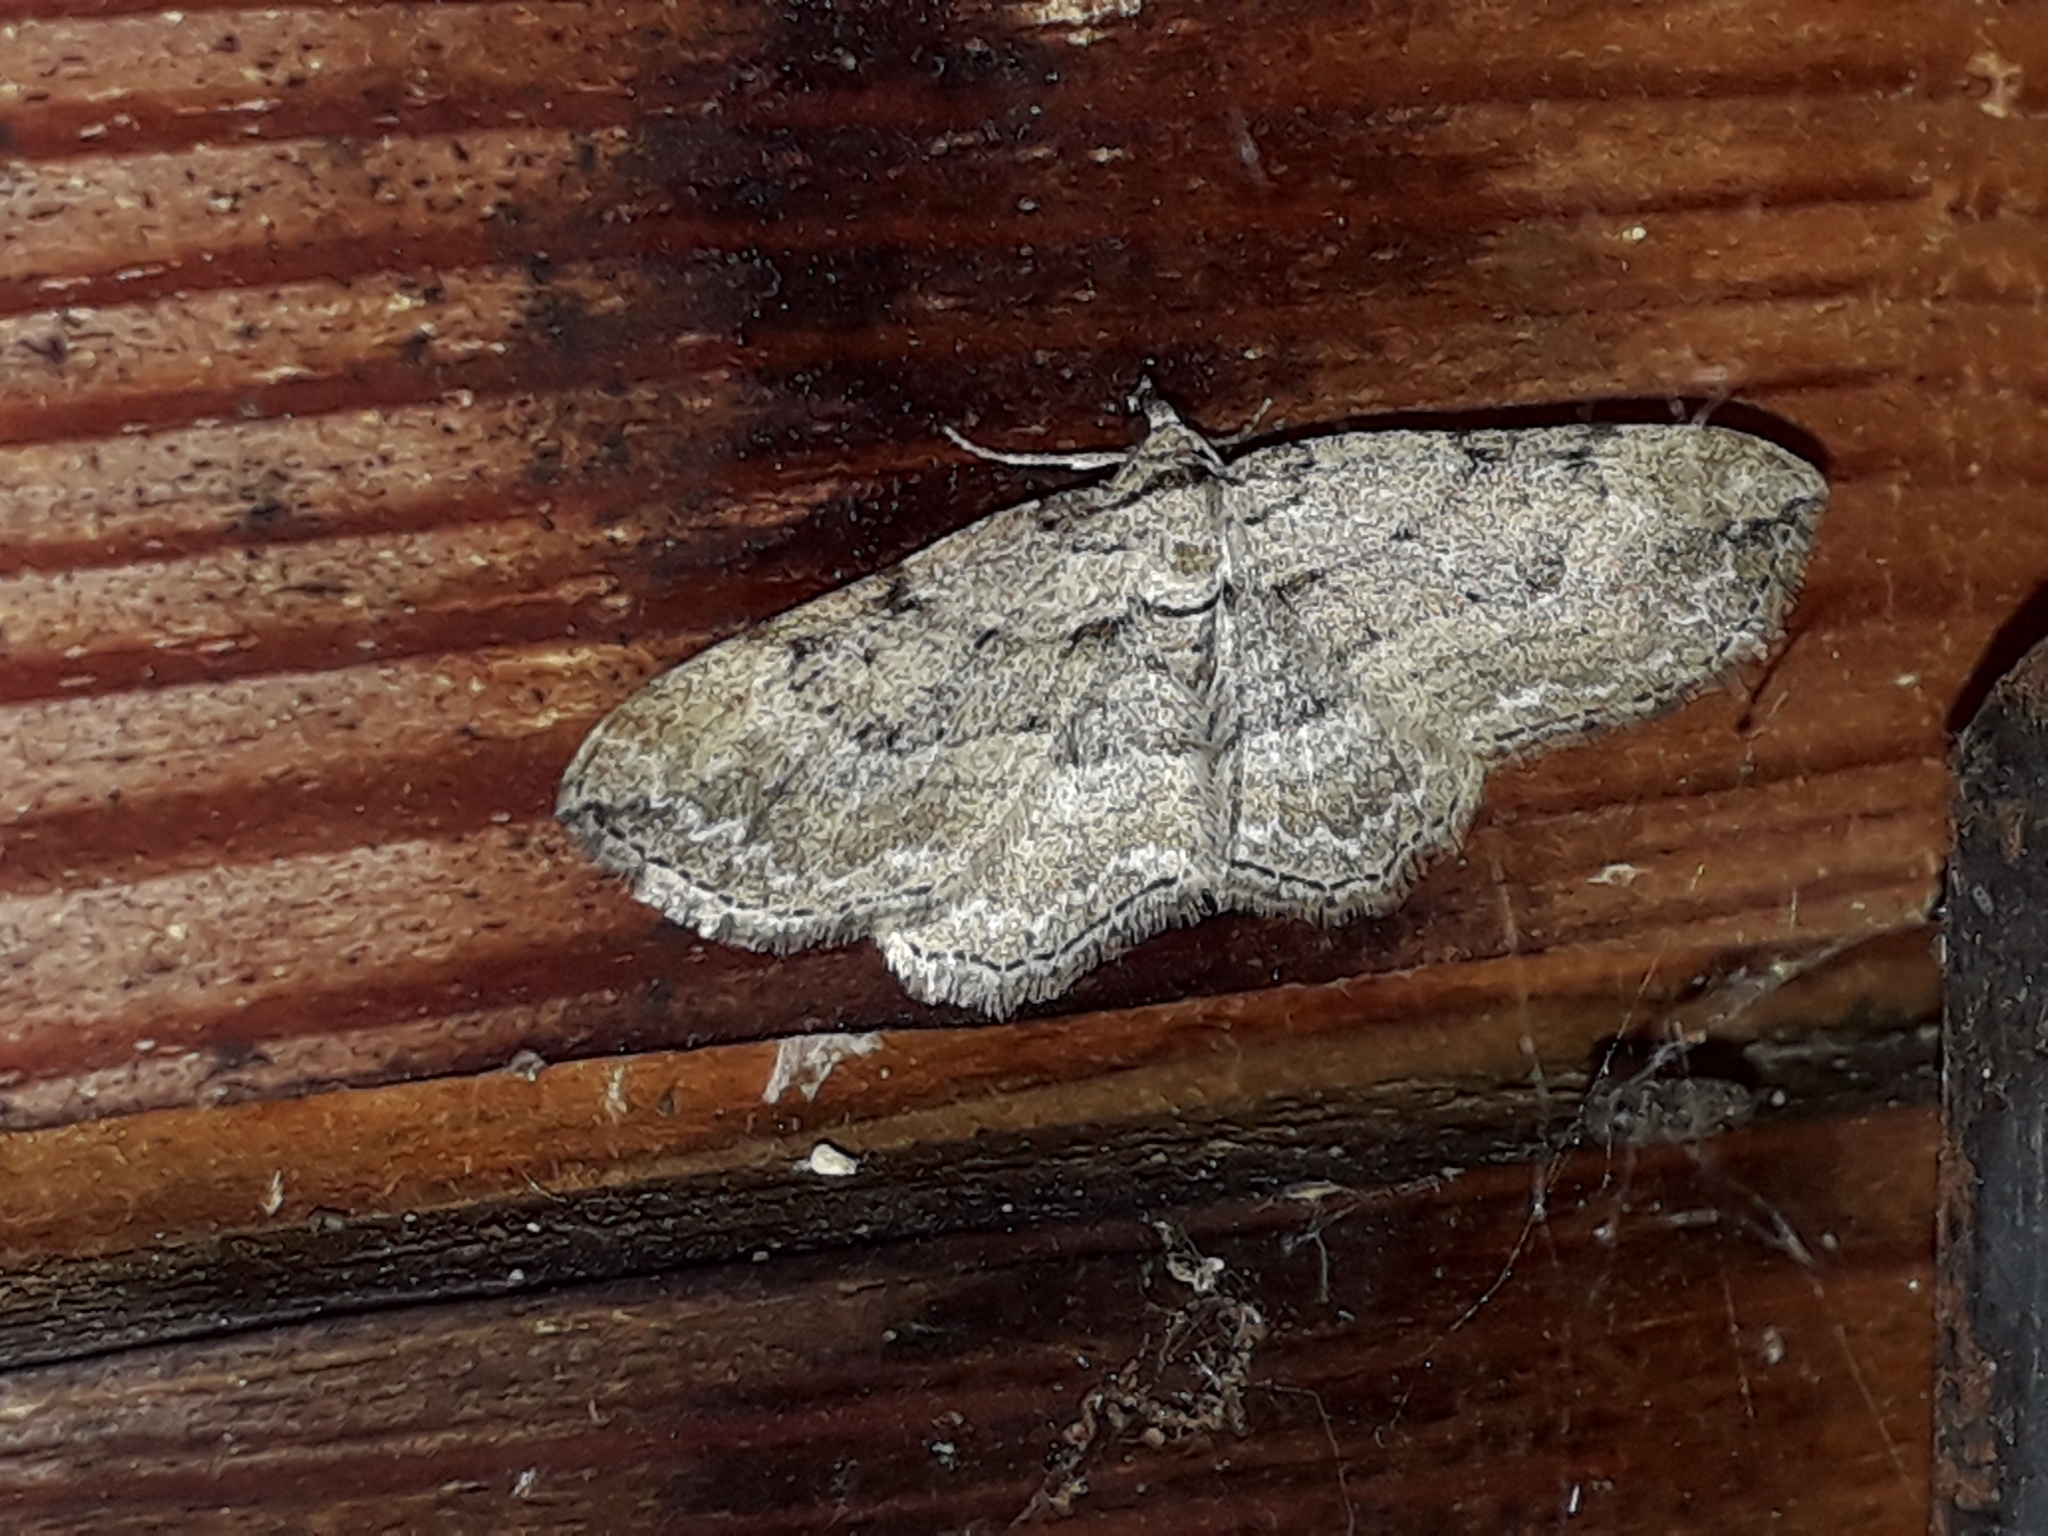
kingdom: Animalia
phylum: Arthropoda
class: Insecta
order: Lepidoptera
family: Geometridae
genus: Horisme
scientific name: Horisme
